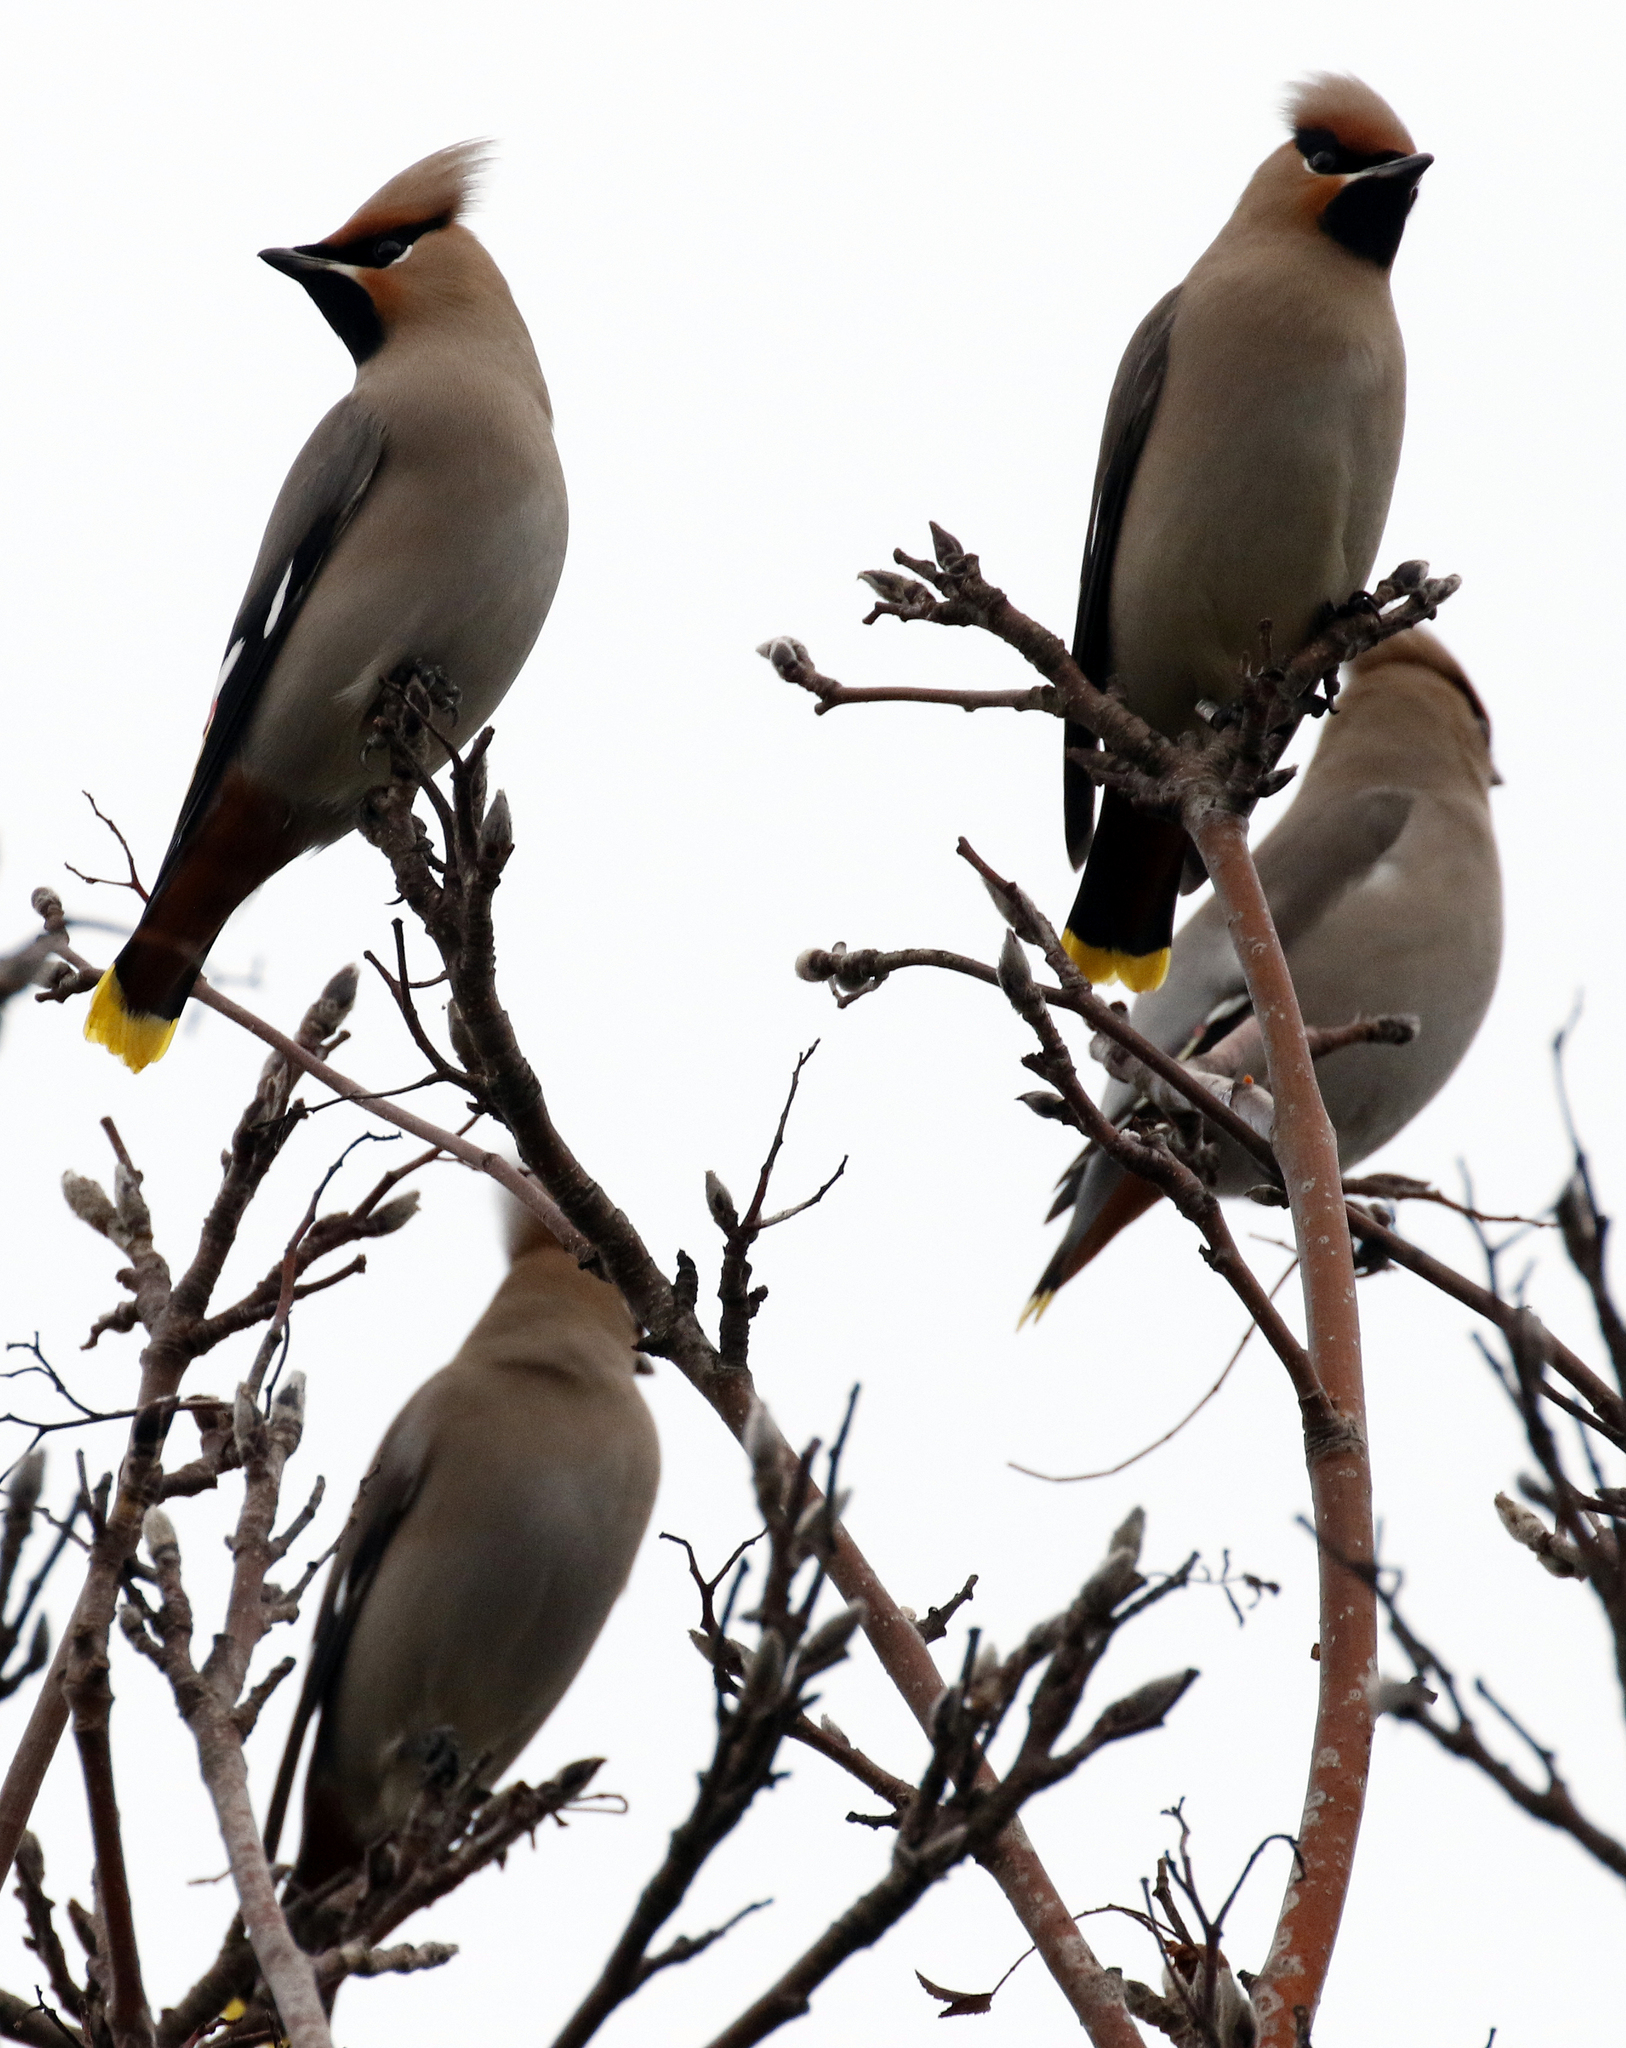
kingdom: Animalia
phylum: Chordata
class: Aves
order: Passeriformes
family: Bombycillidae
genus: Bombycilla
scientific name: Bombycilla garrulus
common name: Bohemian waxwing
